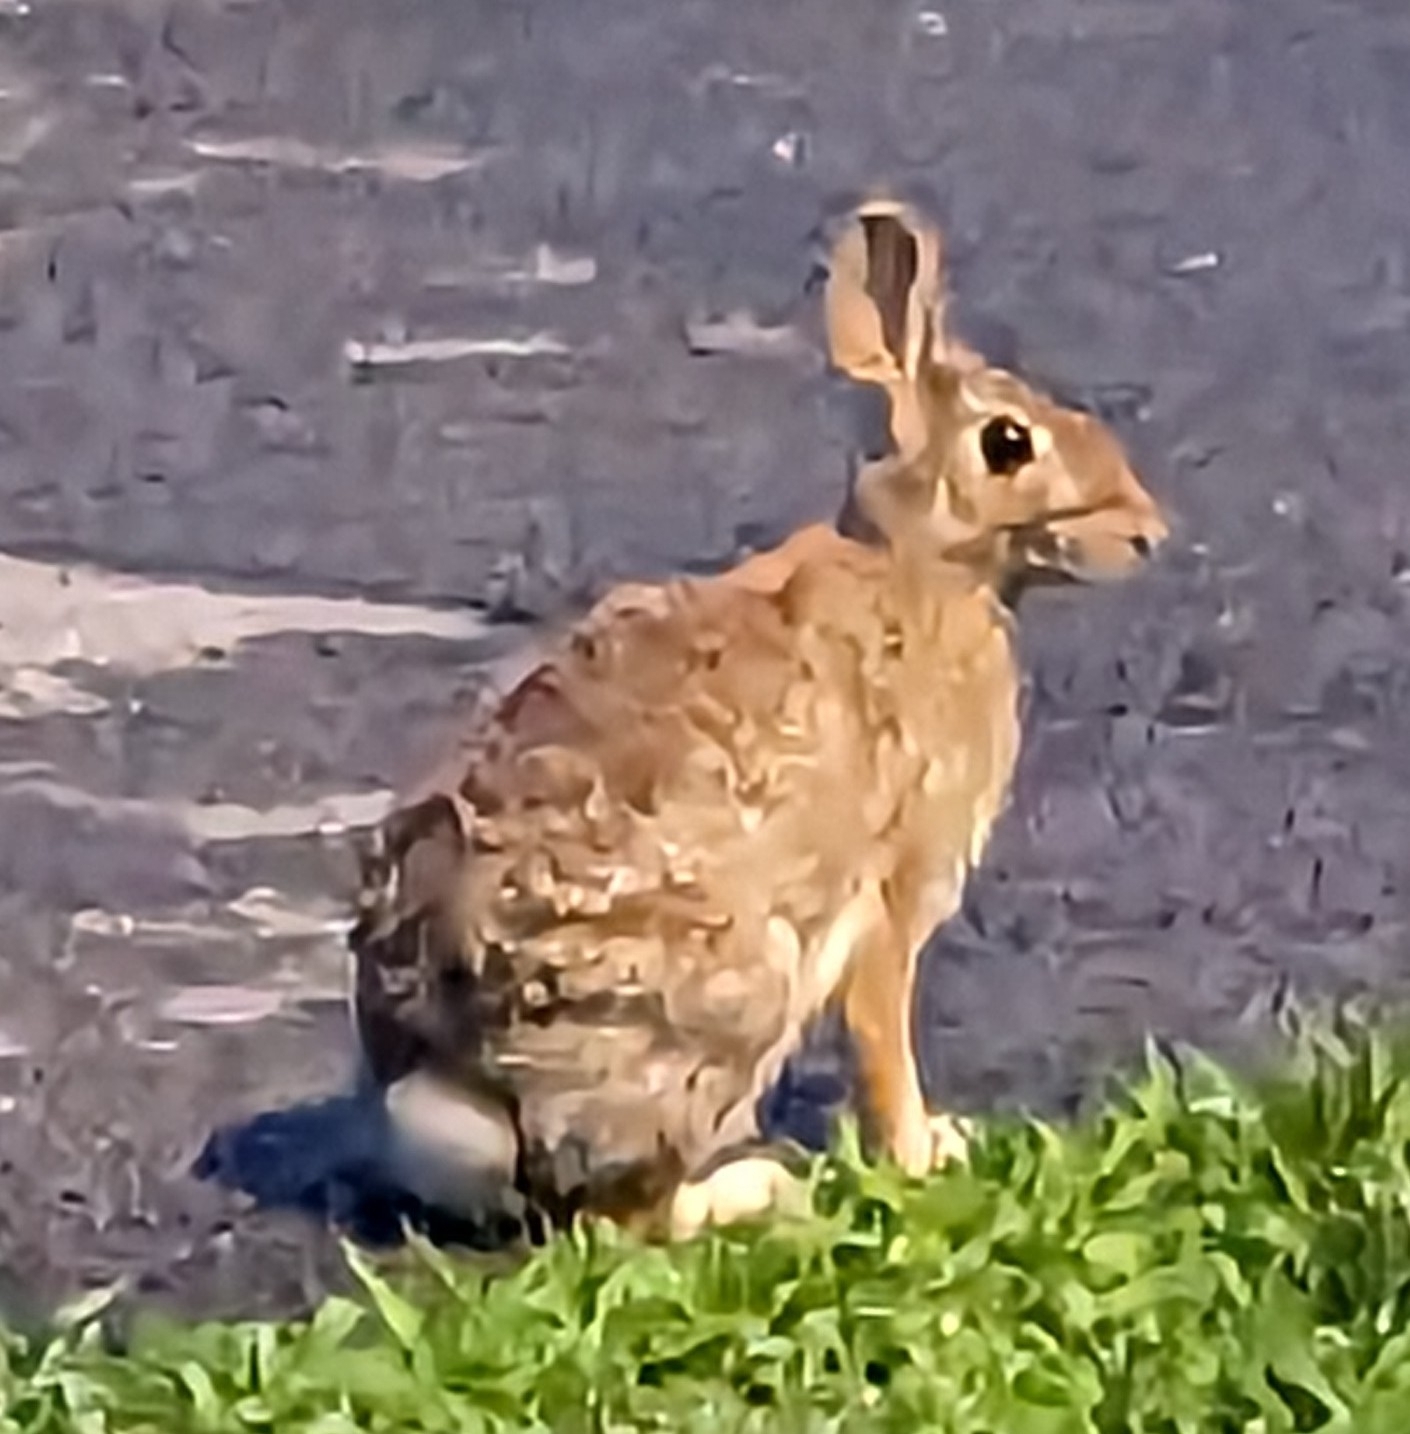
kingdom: Animalia
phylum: Chordata
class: Mammalia
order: Lagomorpha
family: Leporidae
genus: Sylvilagus
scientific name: Sylvilagus floridanus
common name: Eastern cottontail
